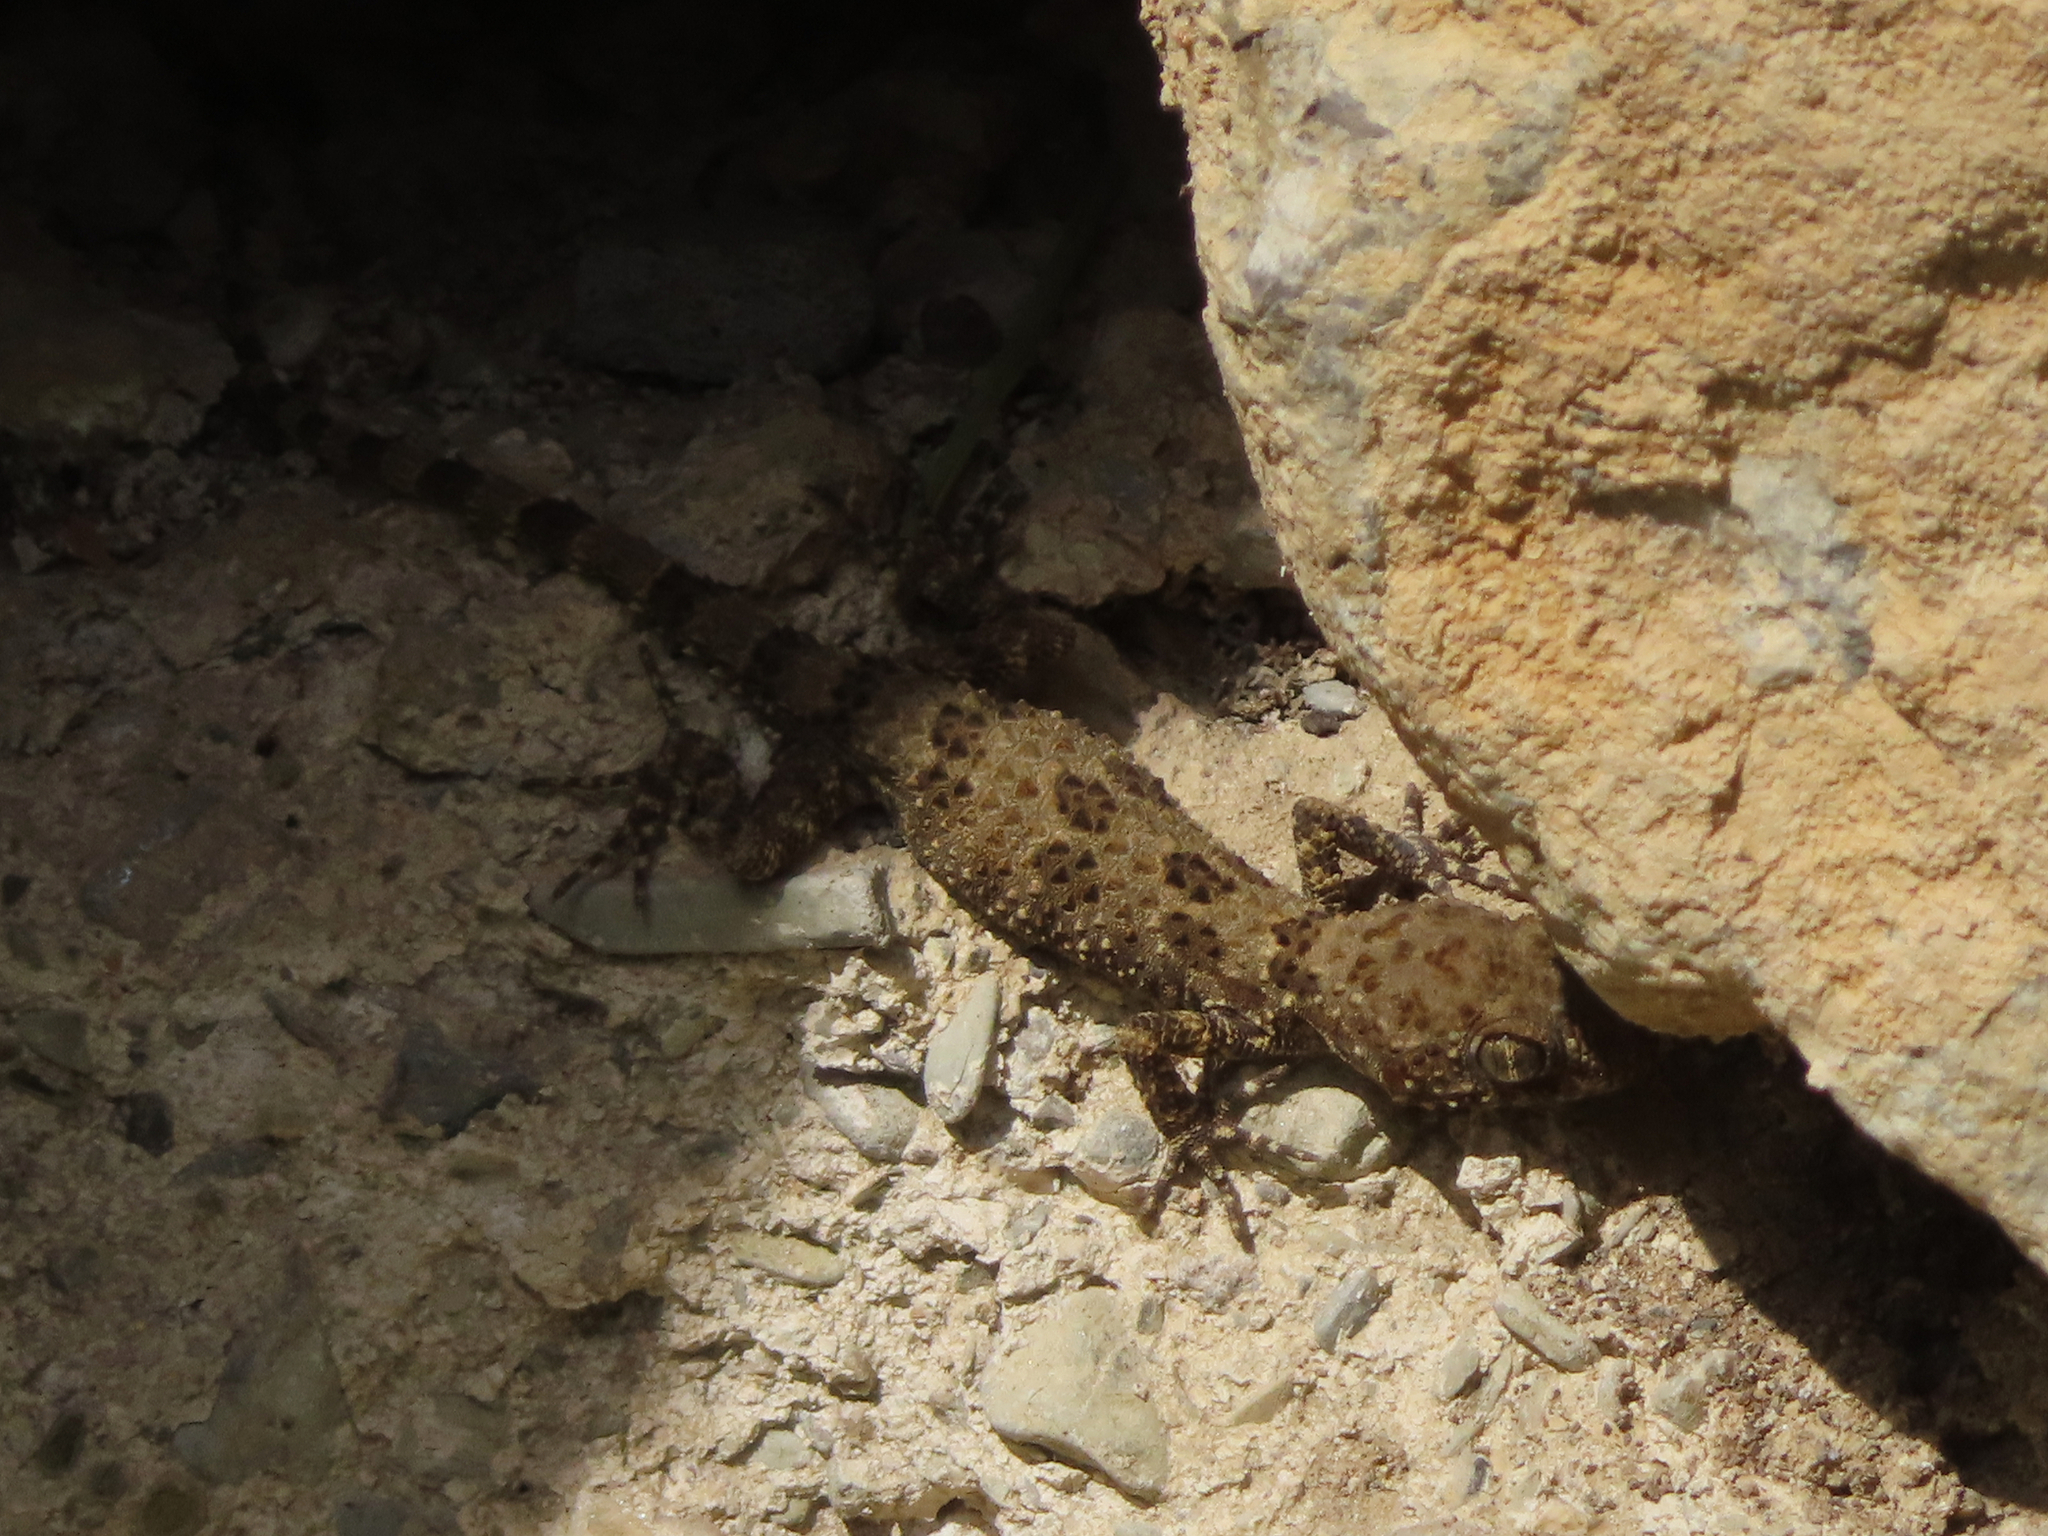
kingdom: Animalia
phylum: Chordata
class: Squamata
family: Gekkonidae
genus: Tenuidactylus
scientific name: Tenuidactylus caspius
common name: Caspian bent-toed gecko
